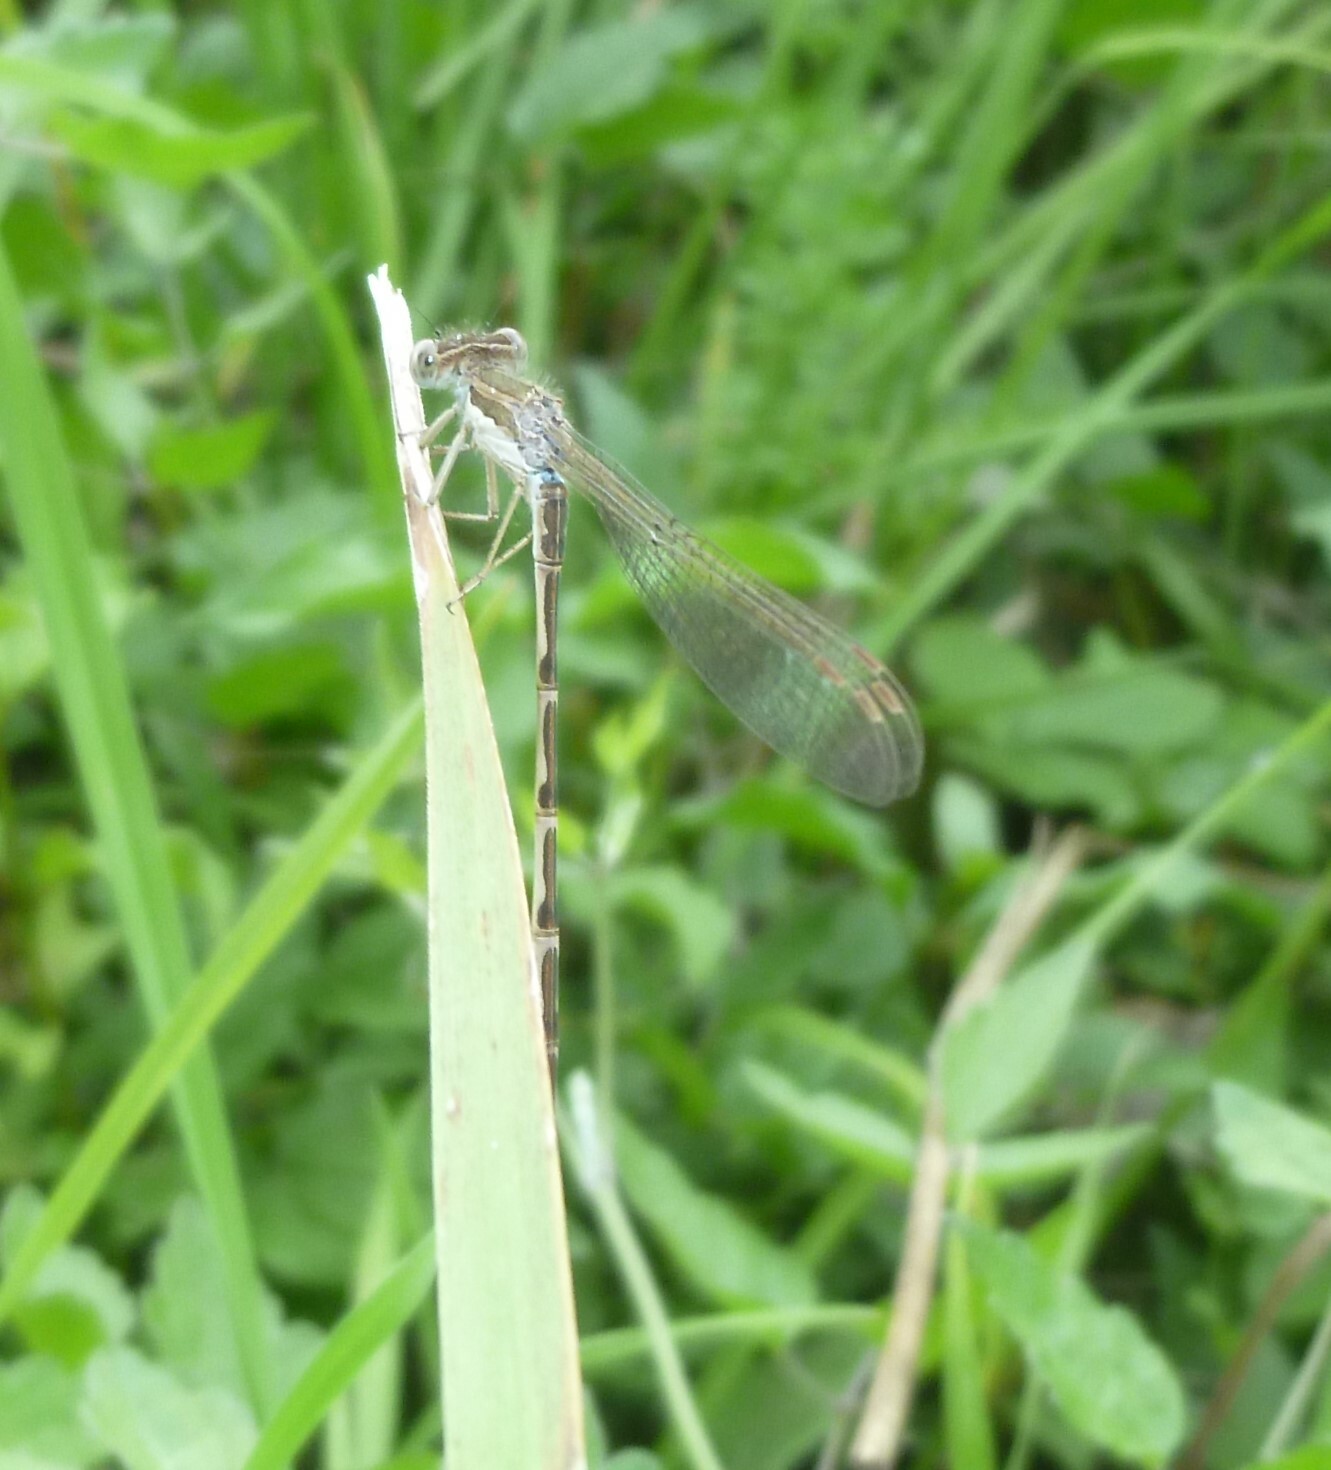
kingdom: Animalia
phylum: Arthropoda
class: Insecta
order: Odonata
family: Lestidae
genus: Sympecma
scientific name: Sympecma fusca
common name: Common winter damsel
